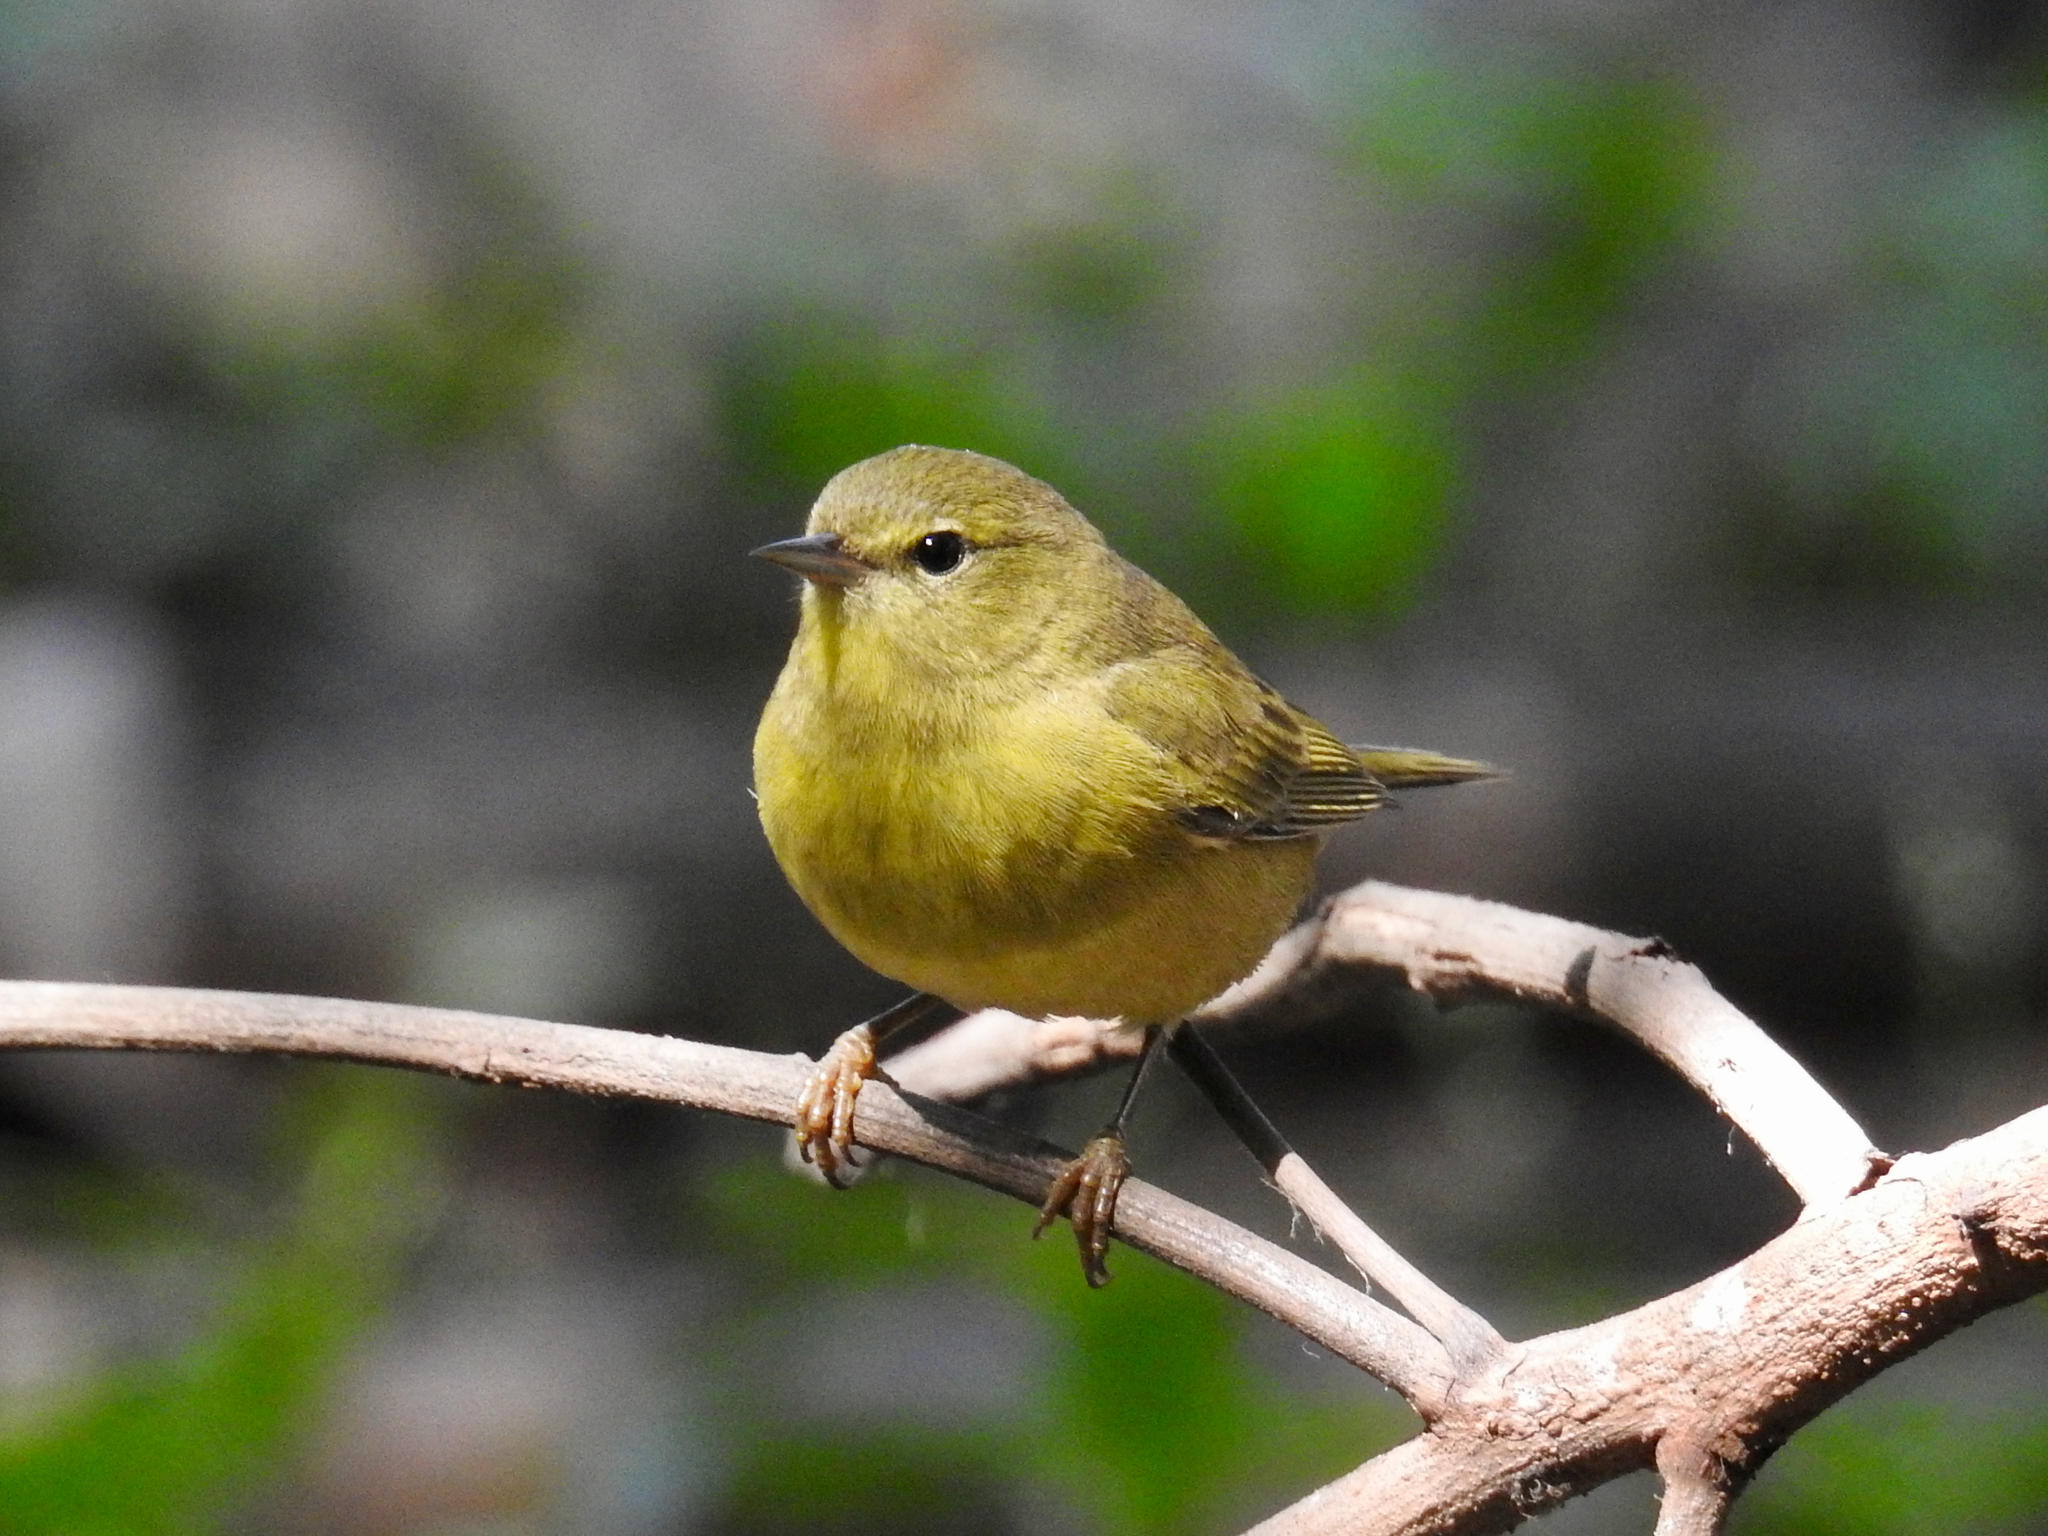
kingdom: Animalia
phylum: Chordata
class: Aves
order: Passeriformes
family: Parulidae
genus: Leiothlypis
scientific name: Leiothlypis celata
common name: Orange-crowned warbler
